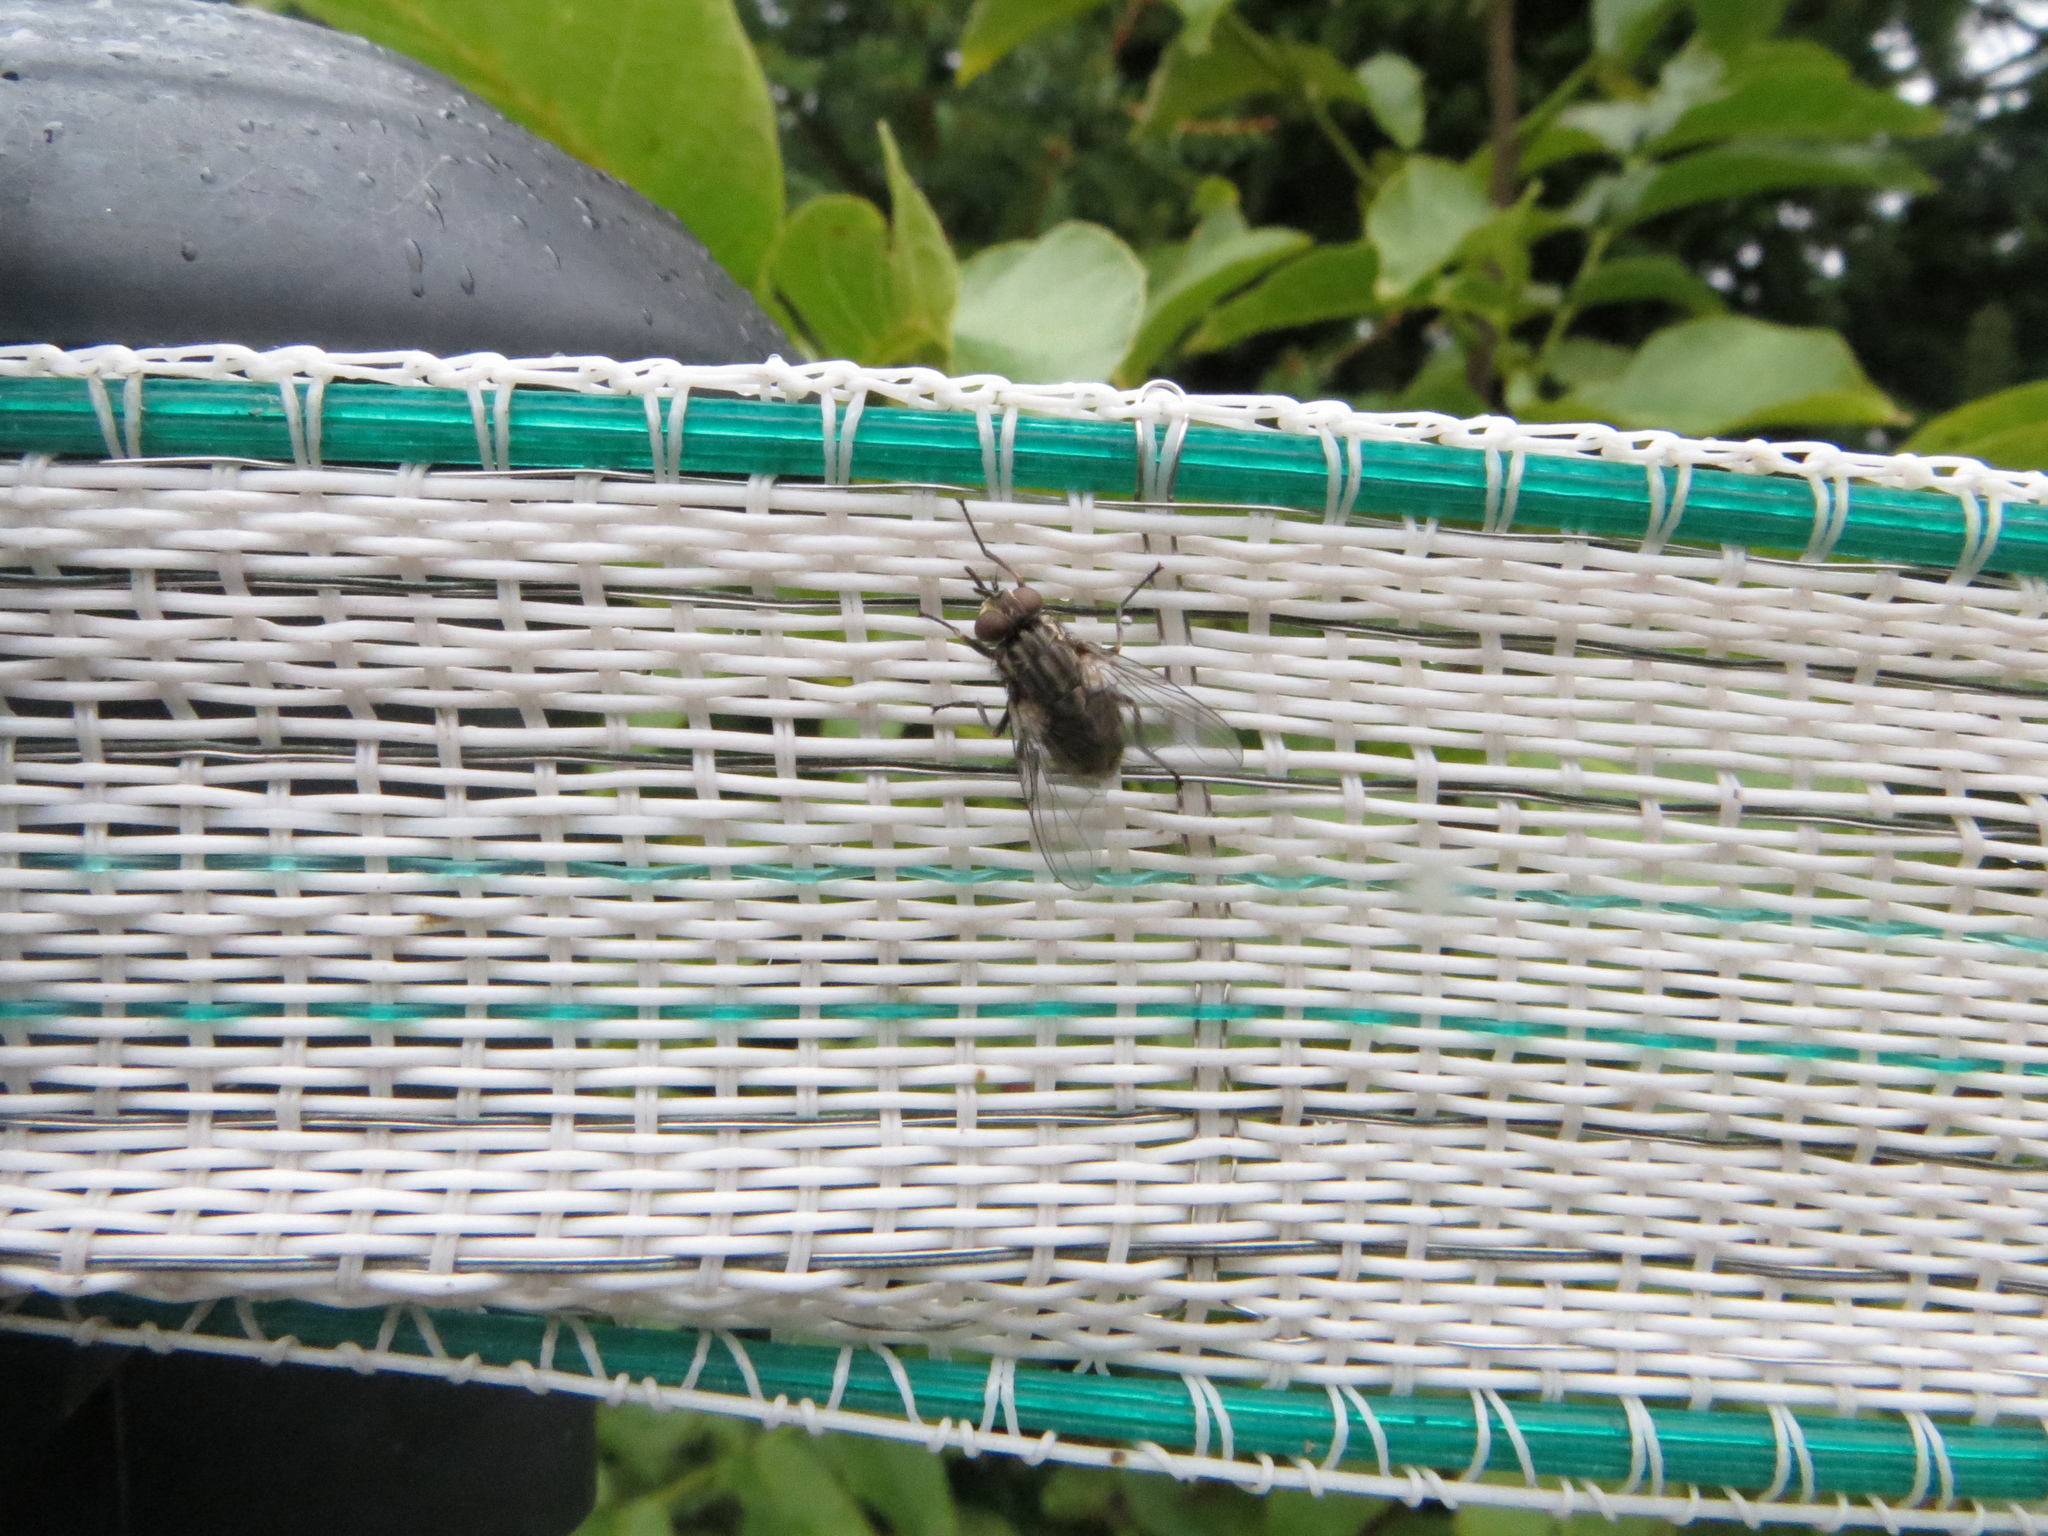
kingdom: Animalia
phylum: Arthropoda
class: Insecta
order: Diptera
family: Muscidae
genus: Stomoxys
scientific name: Stomoxys calcitrans
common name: Stable fly
